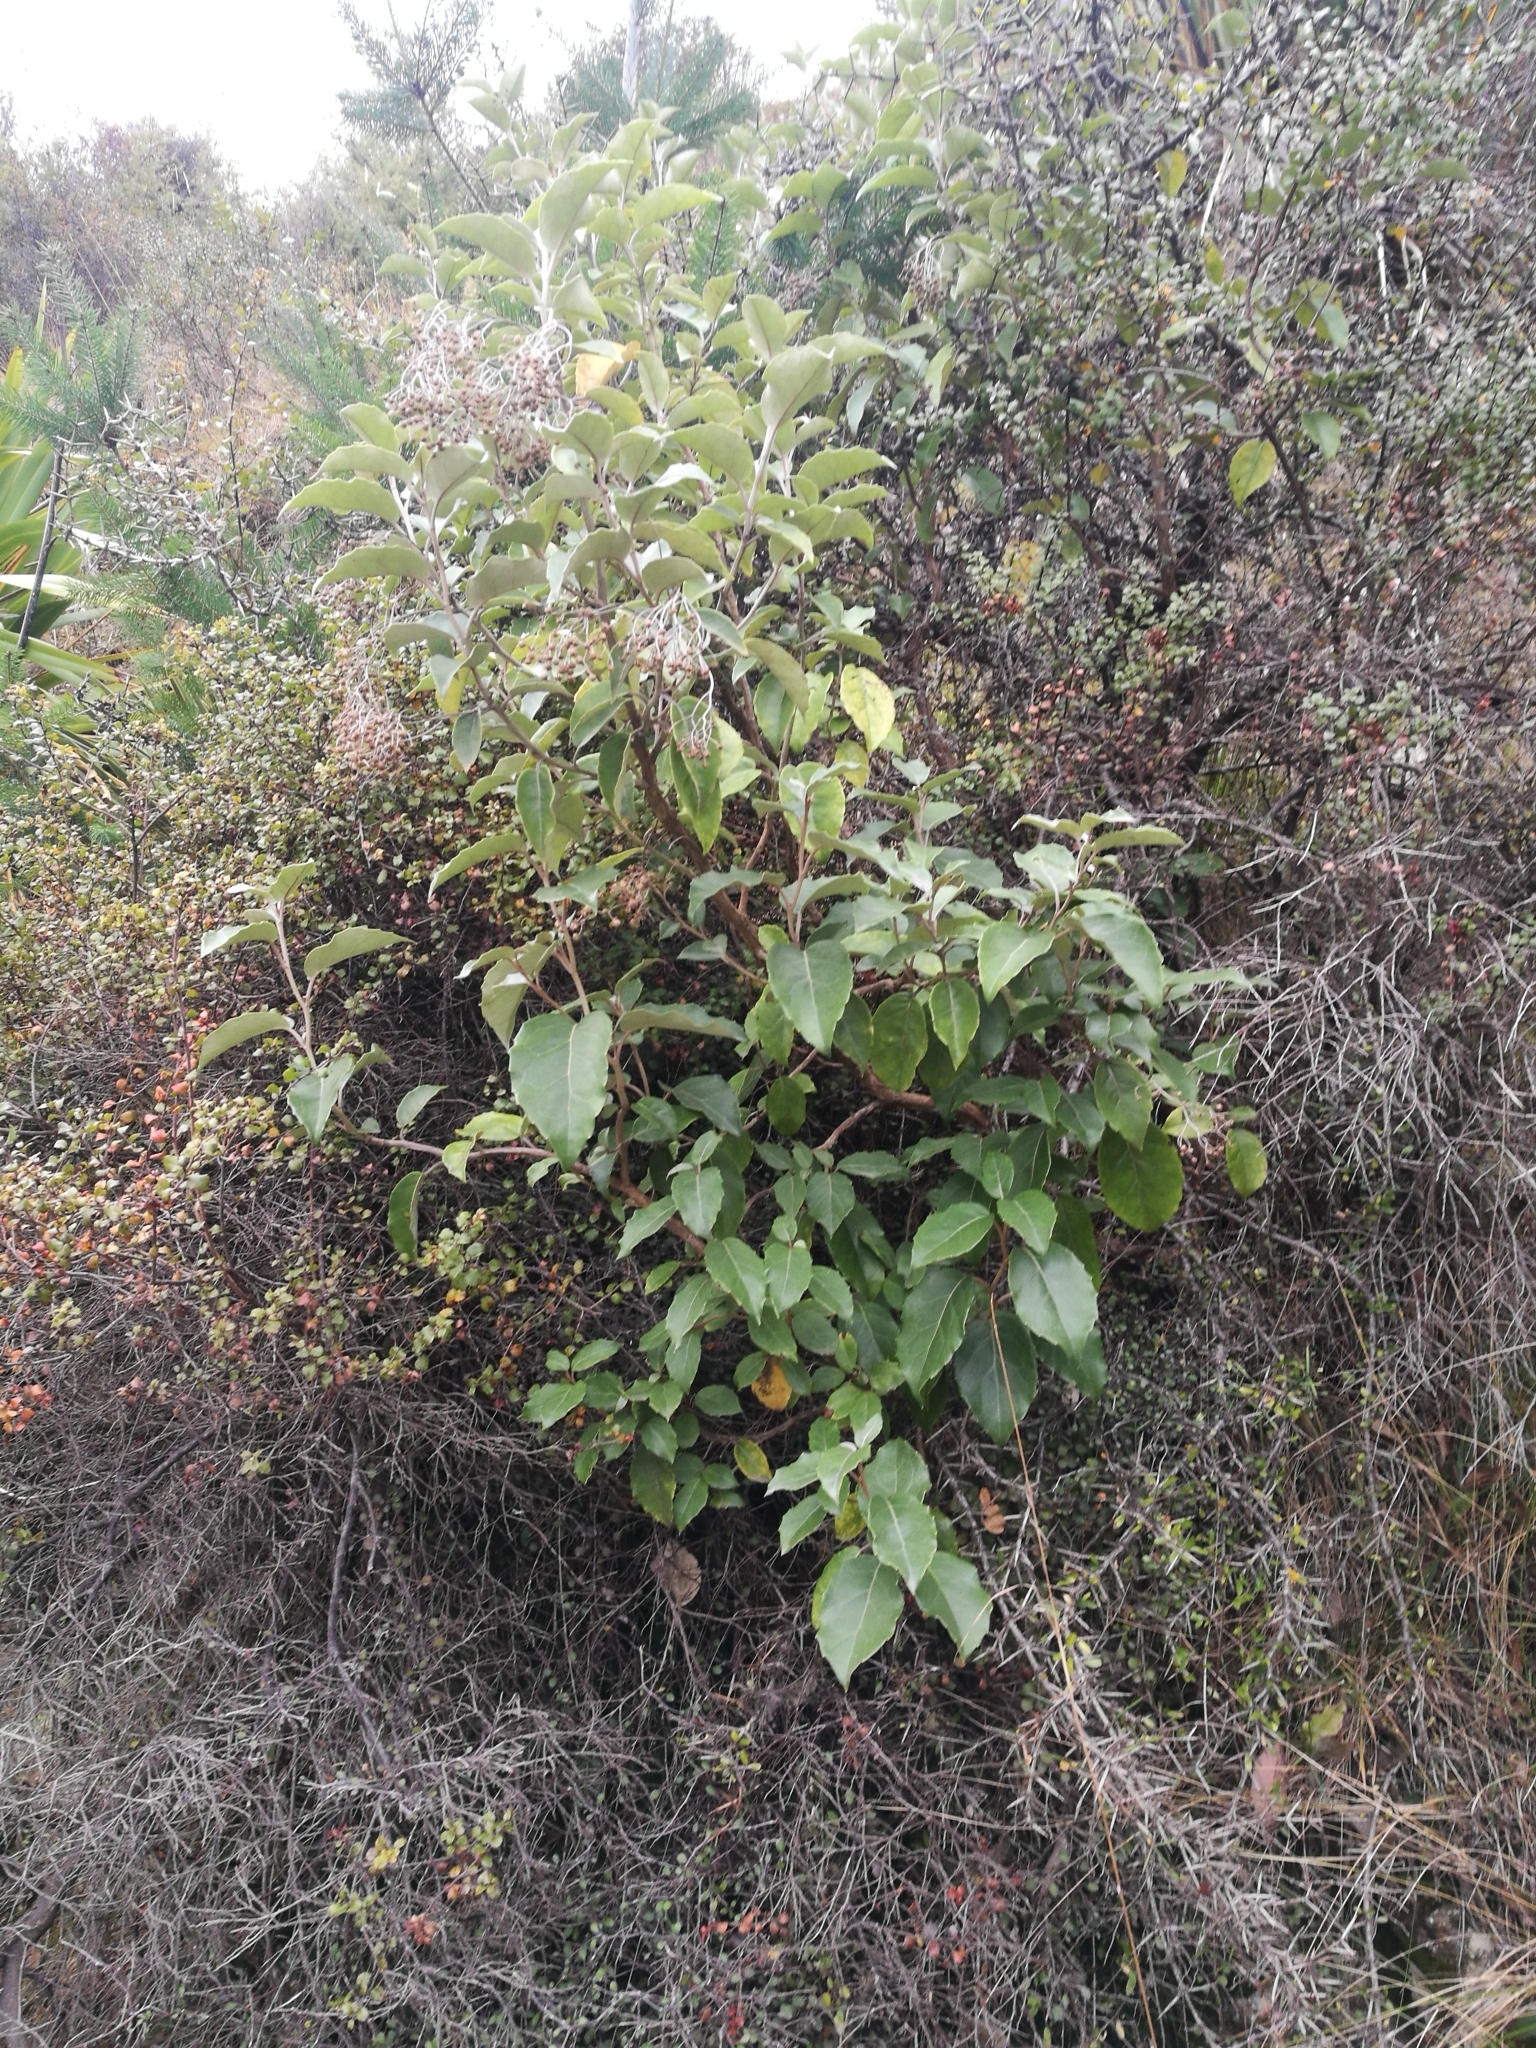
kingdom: Plantae
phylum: Tracheophyta
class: Magnoliopsida
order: Asterales
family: Asteraceae
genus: Olearia
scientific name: Olearia arborescens
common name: Glossy tree daisy
